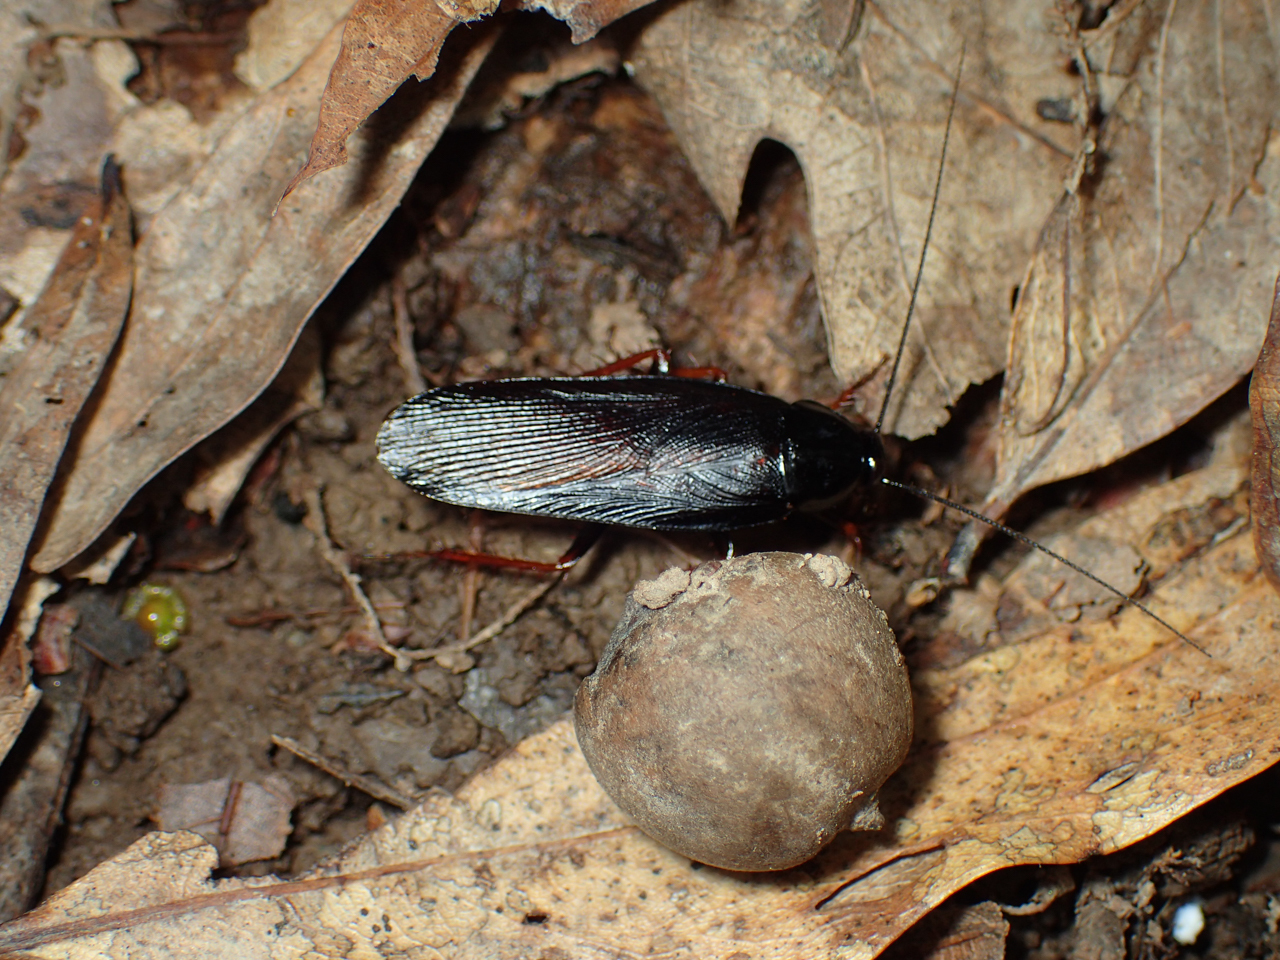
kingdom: Animalia
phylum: Arthropoda
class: Insecta
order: Blattodea
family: Ectobiidae
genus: Ischnoptera
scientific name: Ischnoptera deropeltiformis
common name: Dark wood cockroach
